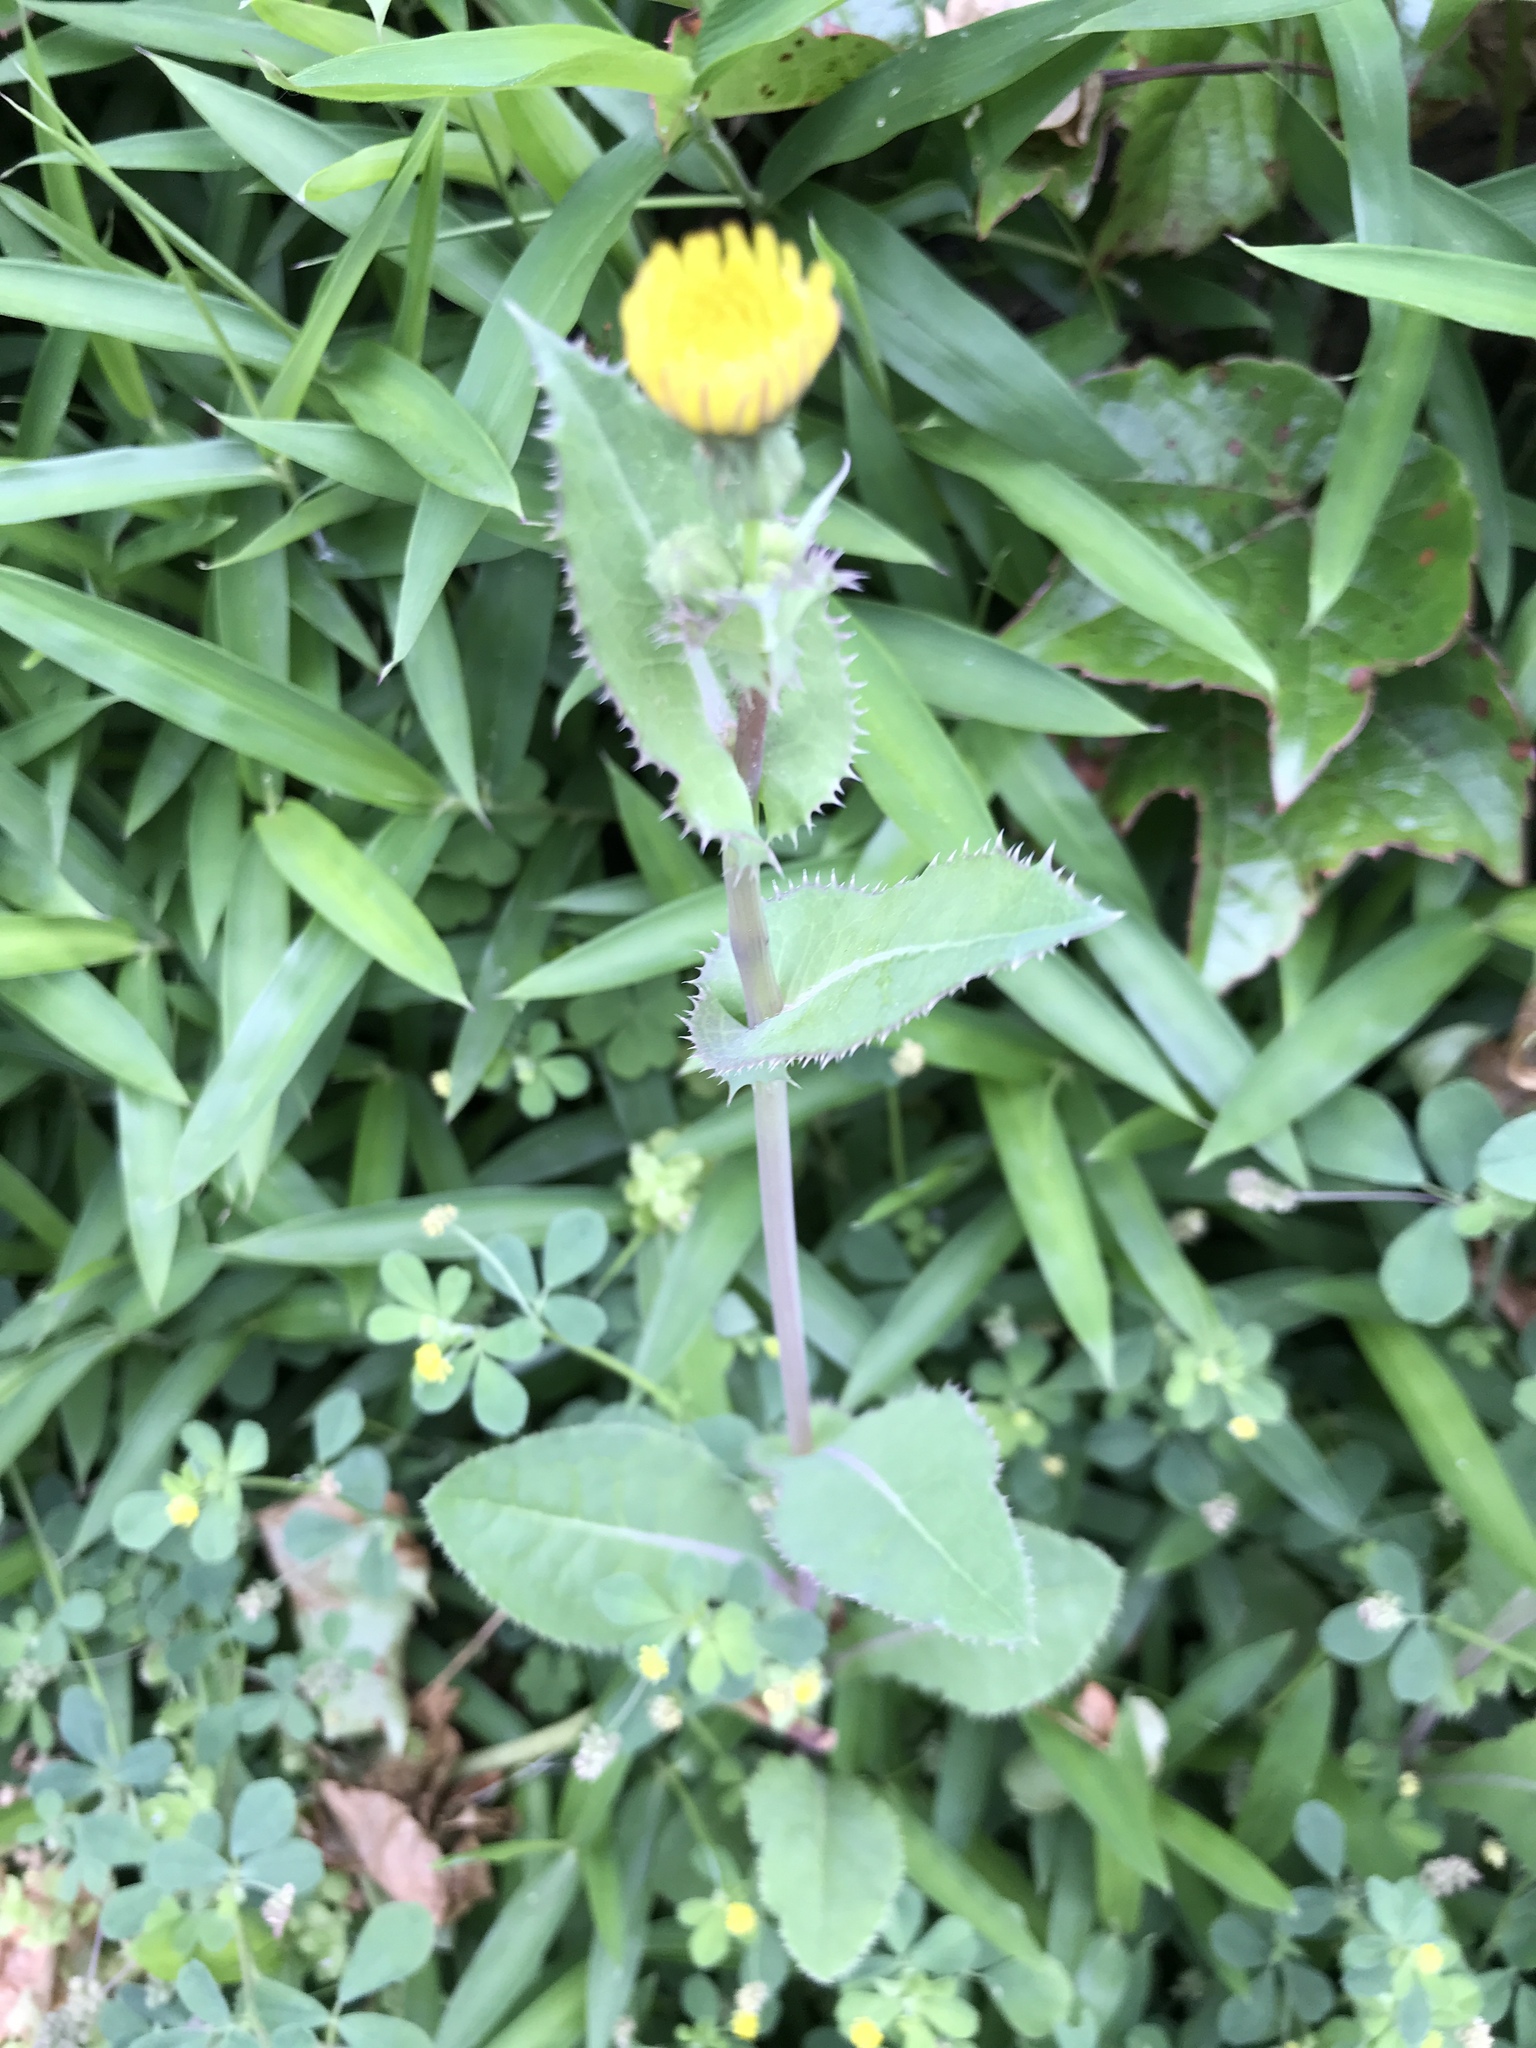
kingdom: Plantae
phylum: Tracheophyta
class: Magnoliopsida
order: Asterales
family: Asteraceae
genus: Sonchus
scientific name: Sonchus oleraceus
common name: Common sowthistle
